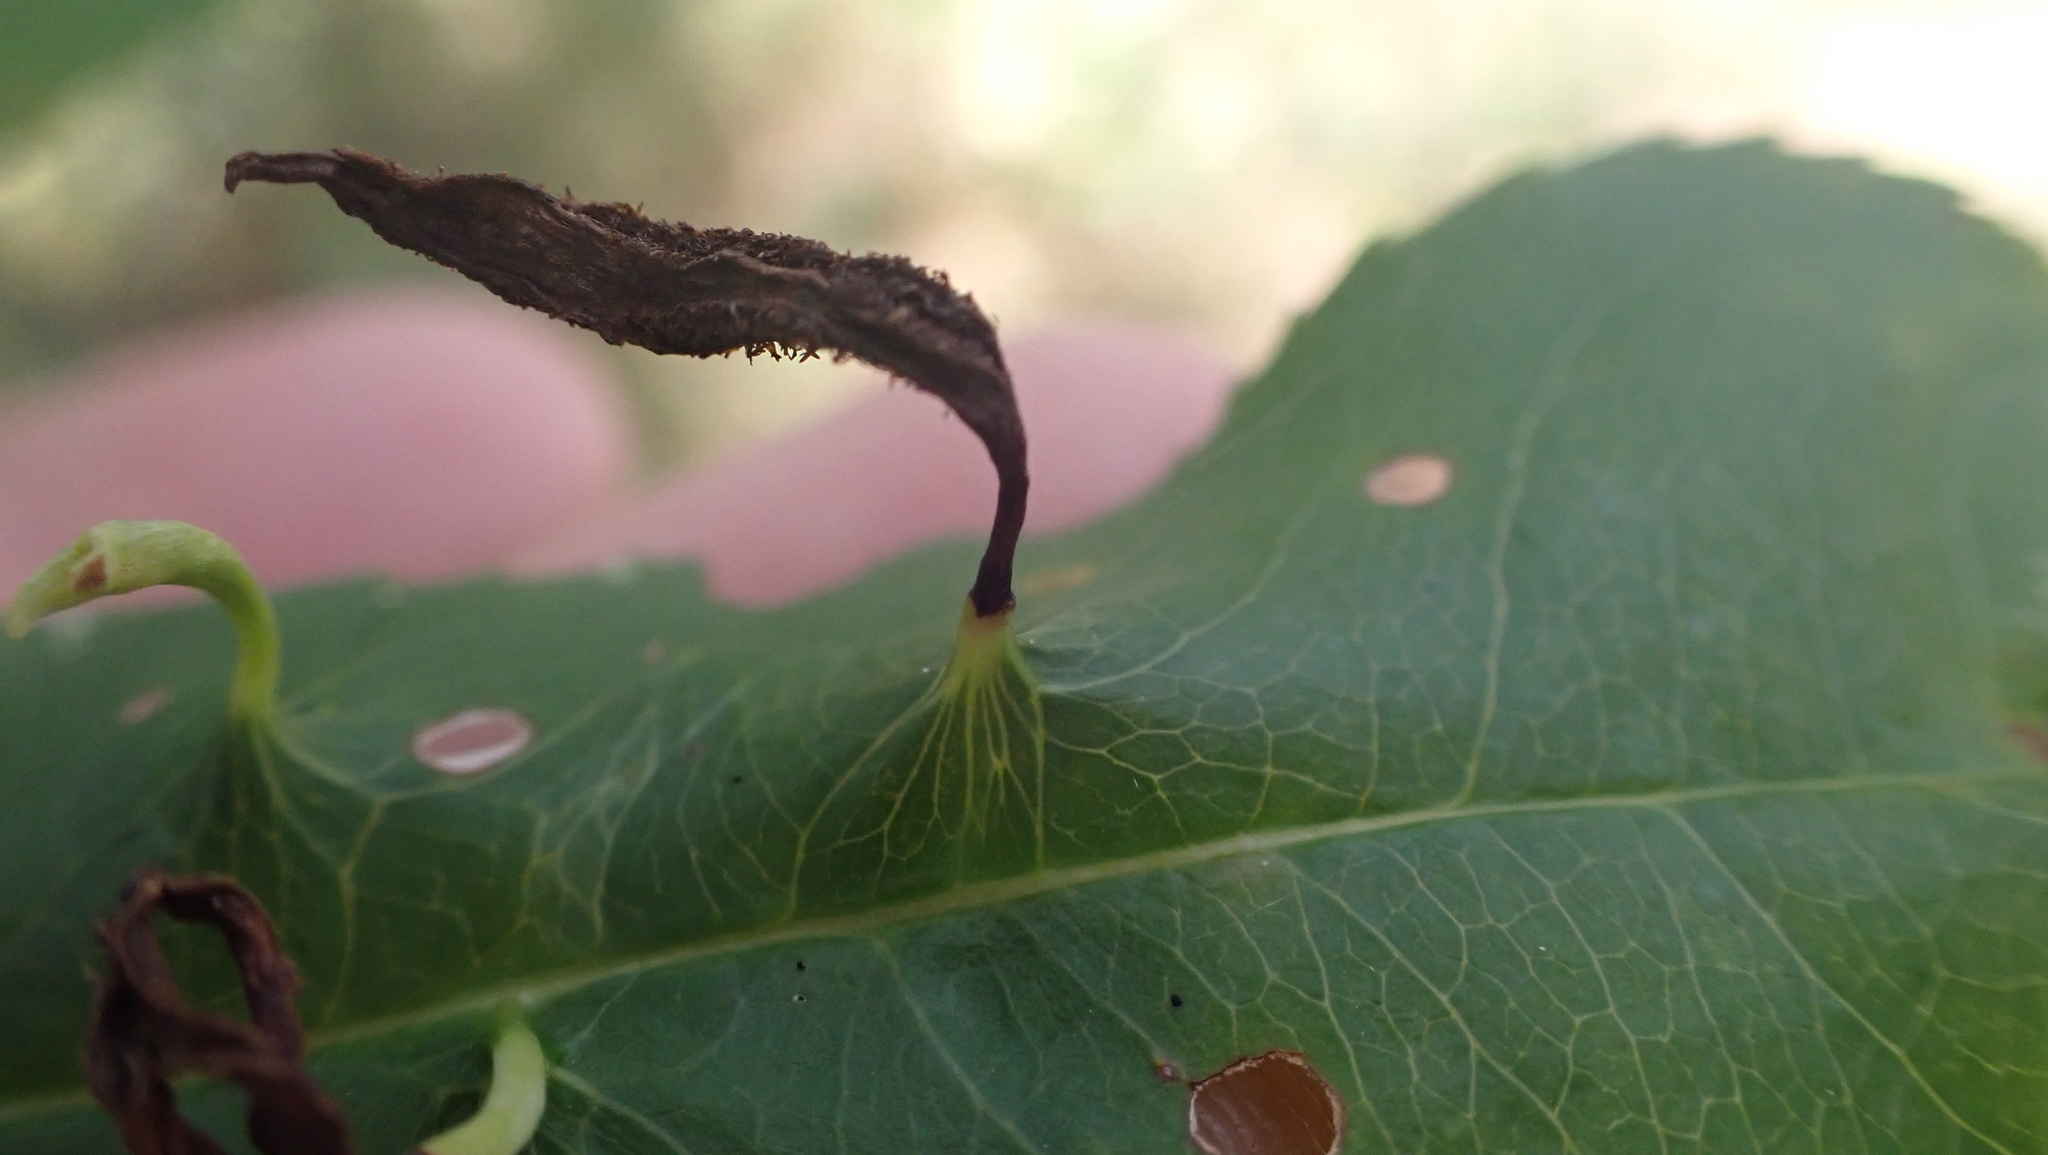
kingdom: Animalia
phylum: Arthropoda
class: Arachnida
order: Trombidiformes
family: Eriophyidae
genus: Eriophyes
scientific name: Eriophyes
